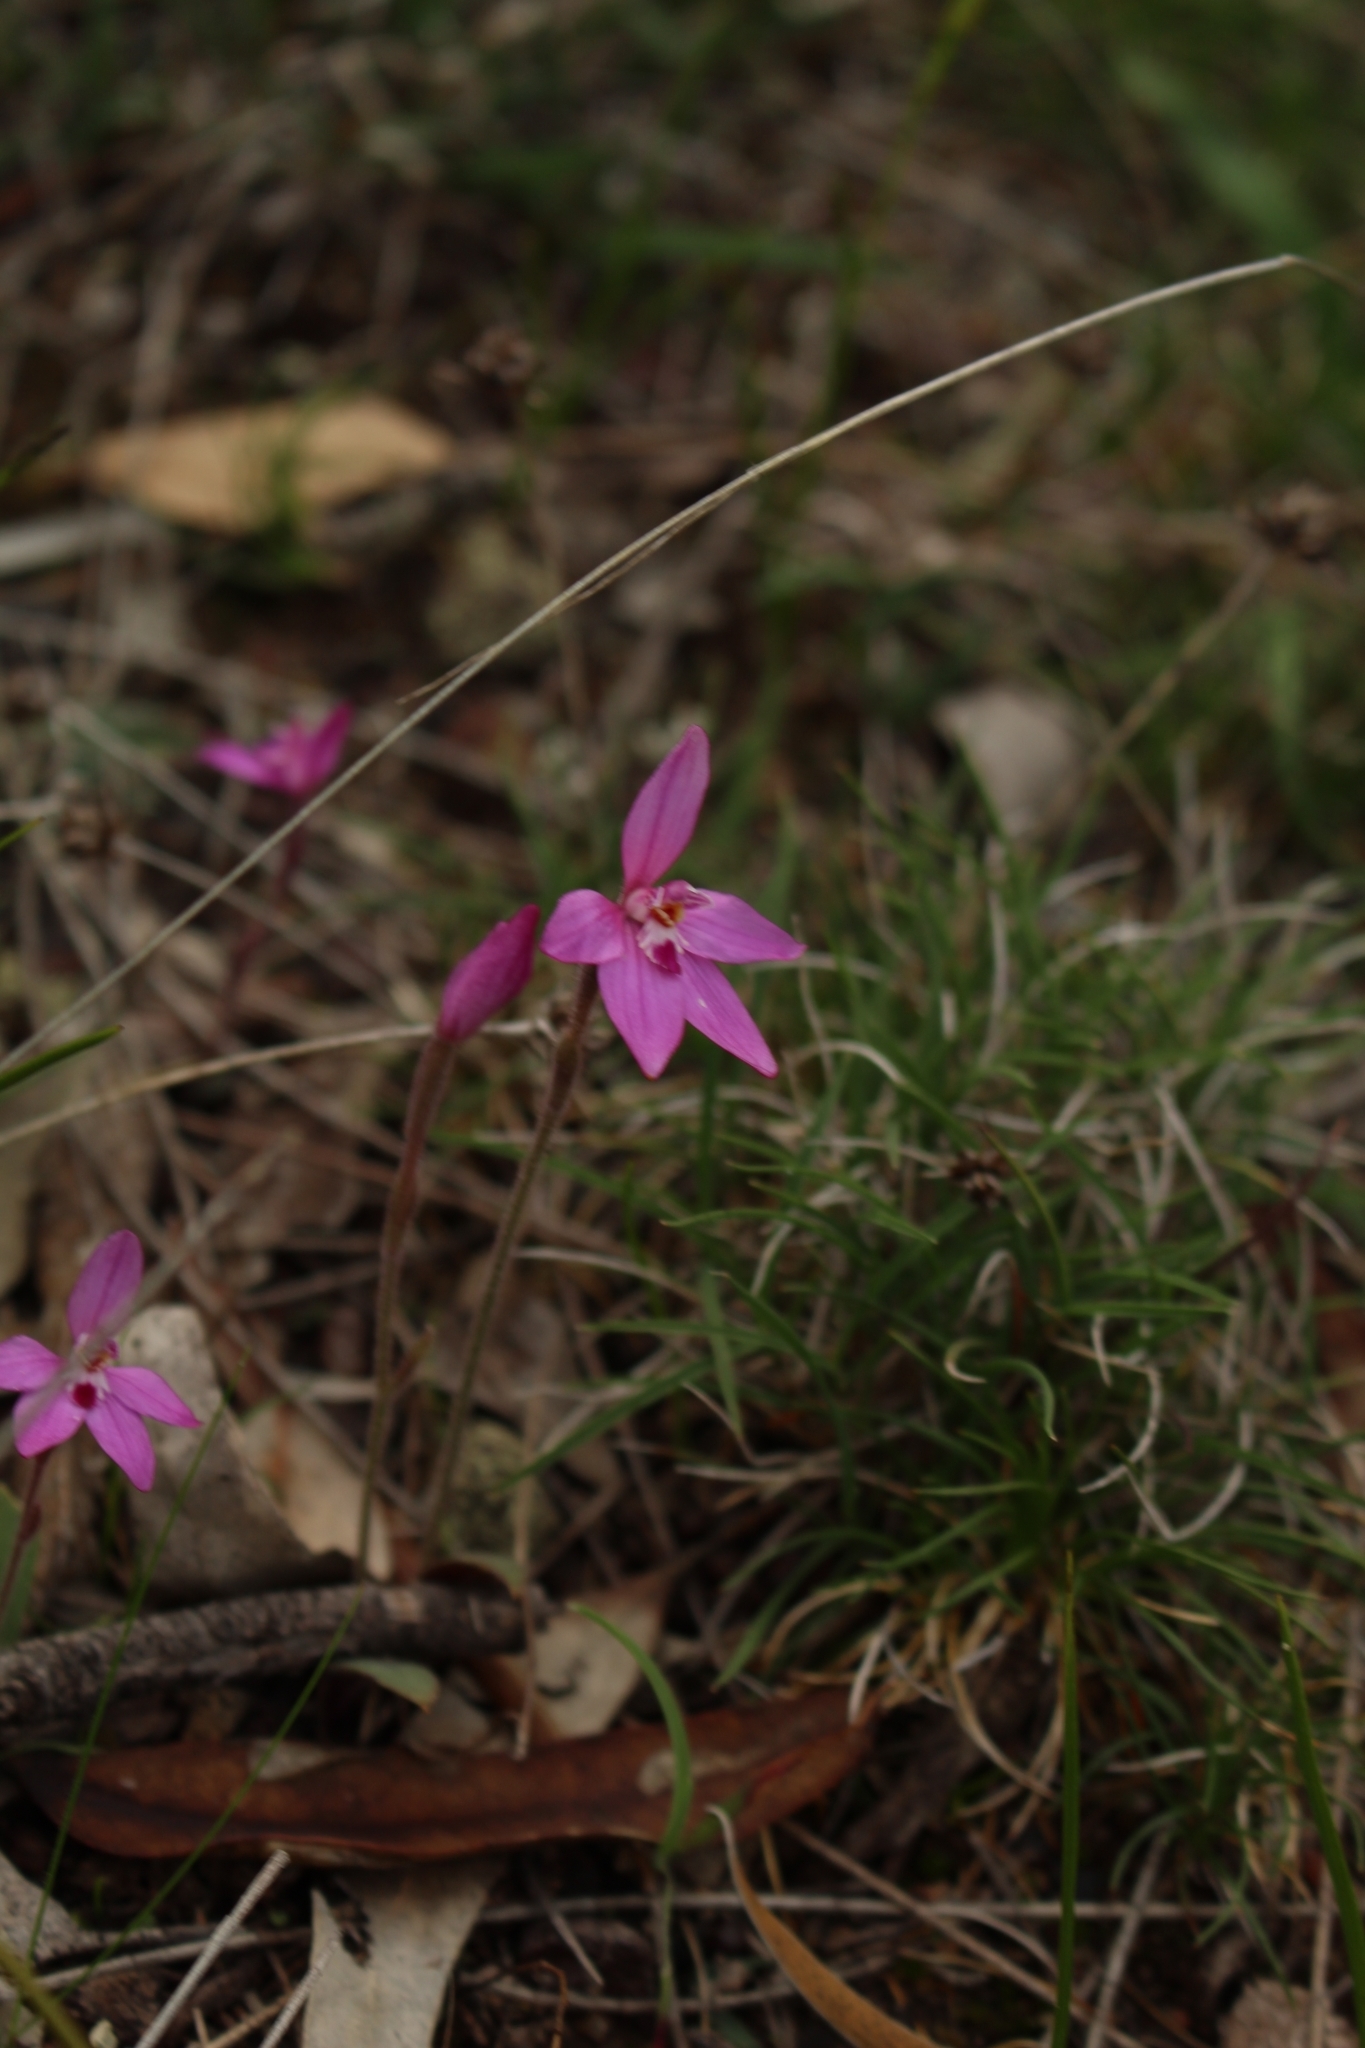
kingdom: Plantae
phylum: Tracheophyta
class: Liliopsida
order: Asparagales
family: Orchidaceae
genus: Caladenia
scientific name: Caladenia reptans
